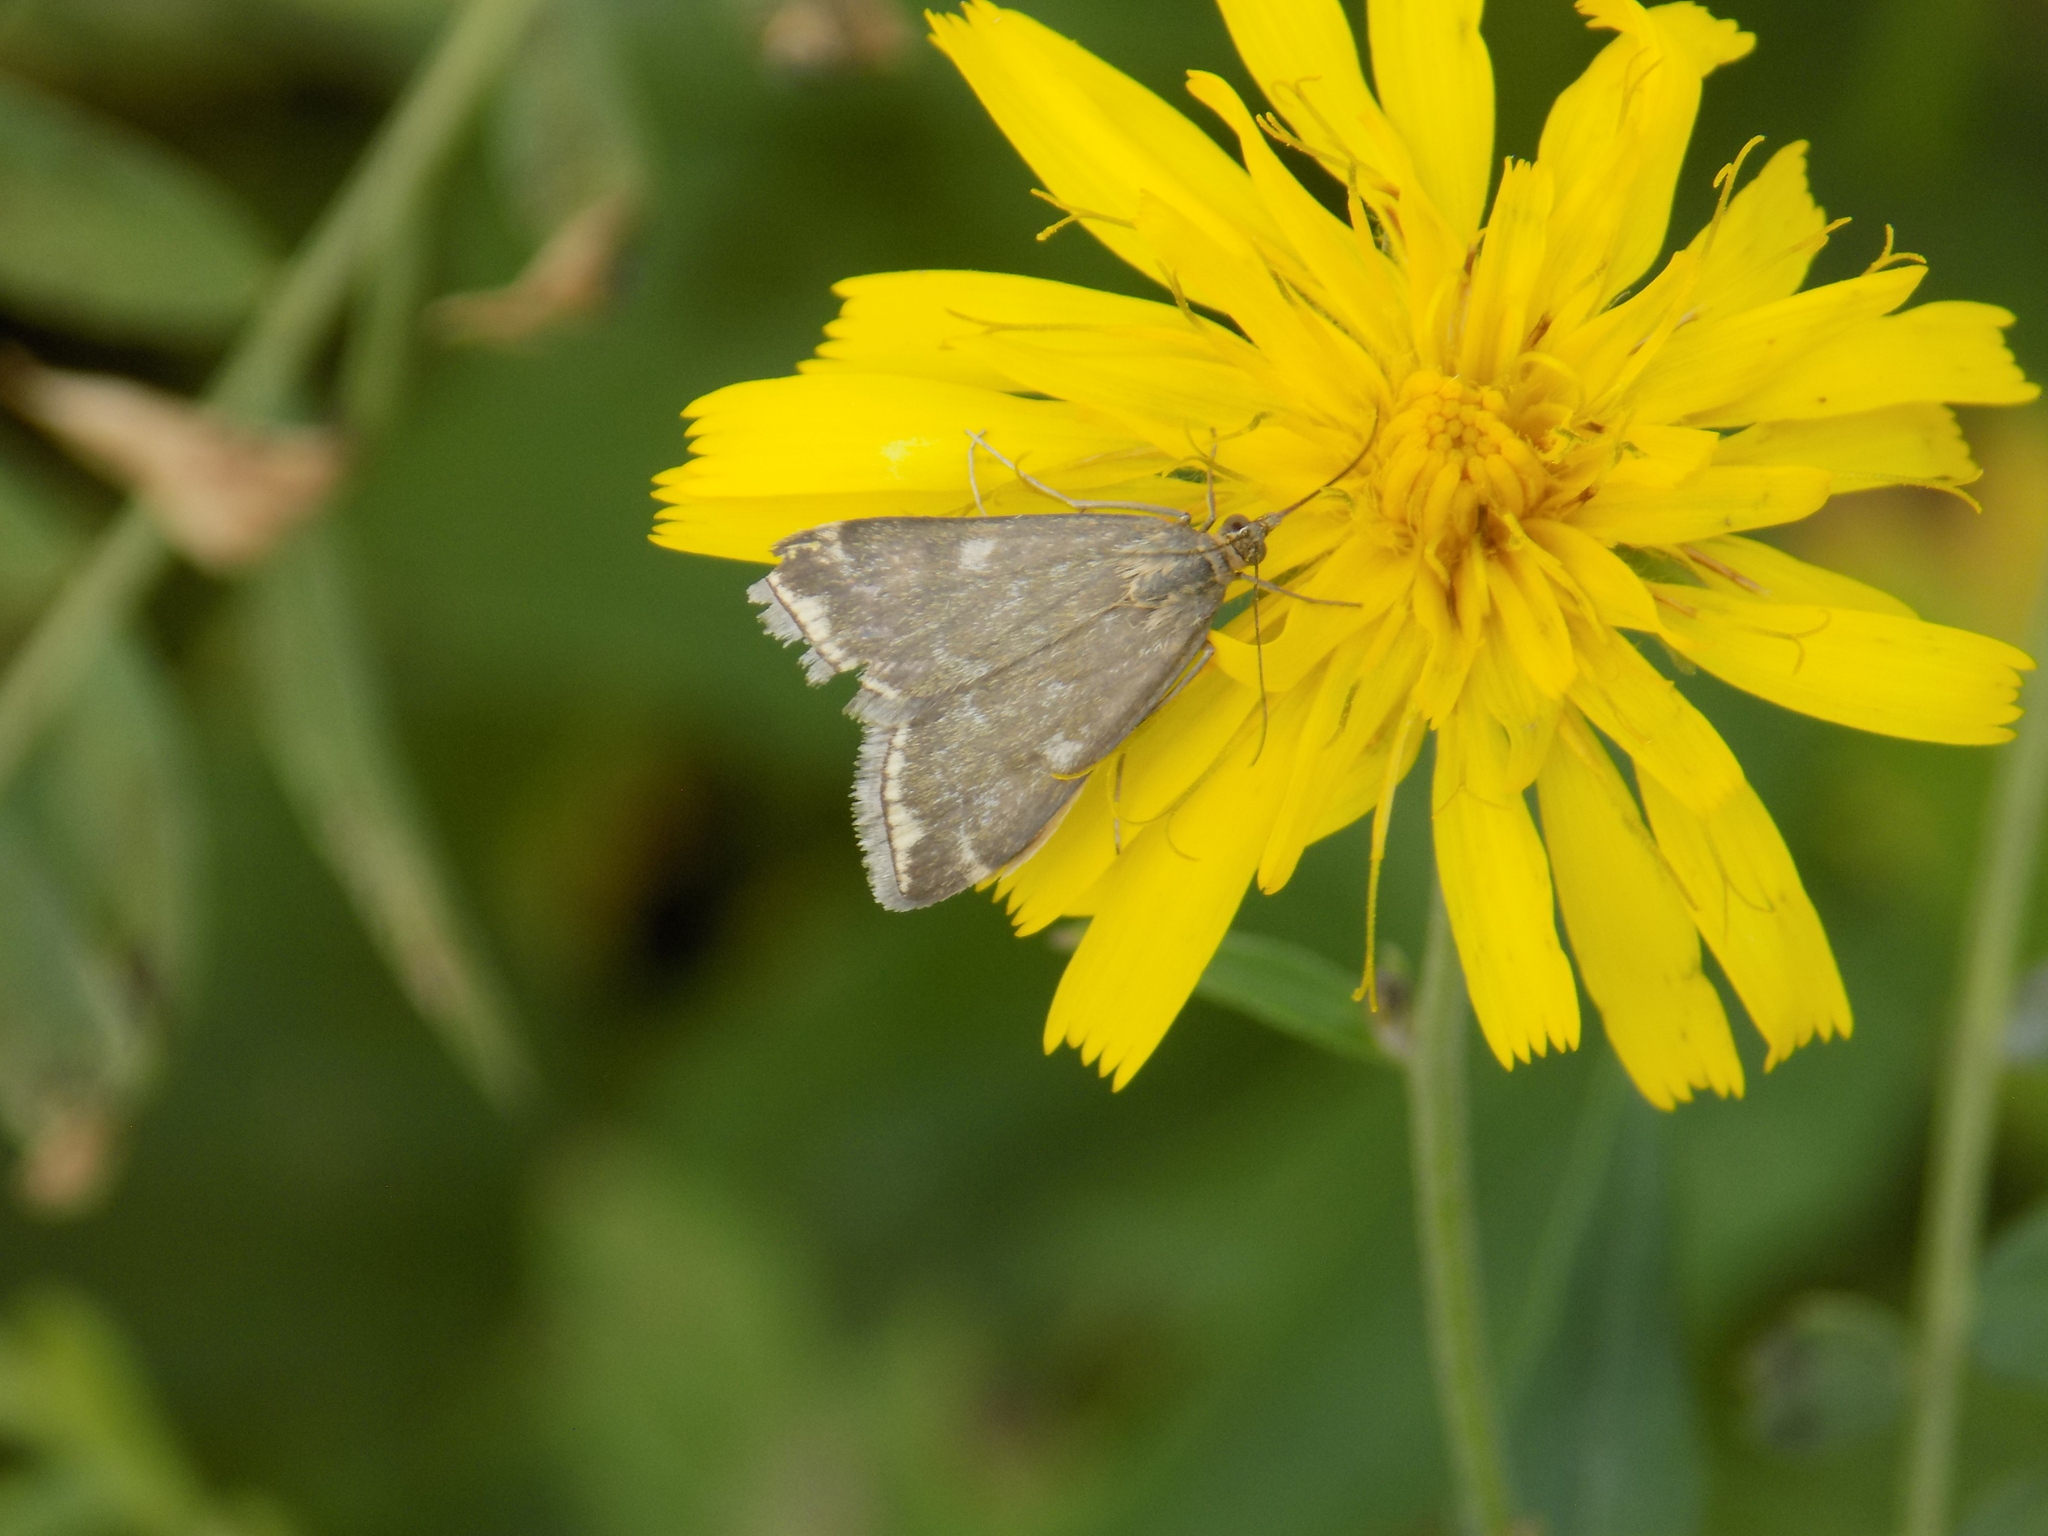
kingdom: Animalia
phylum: Arthropoda
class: Insecta
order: Lepidoptera
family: Crambidae
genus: Loxostege
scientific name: Loxostege sticticalis
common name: Crambid moth
